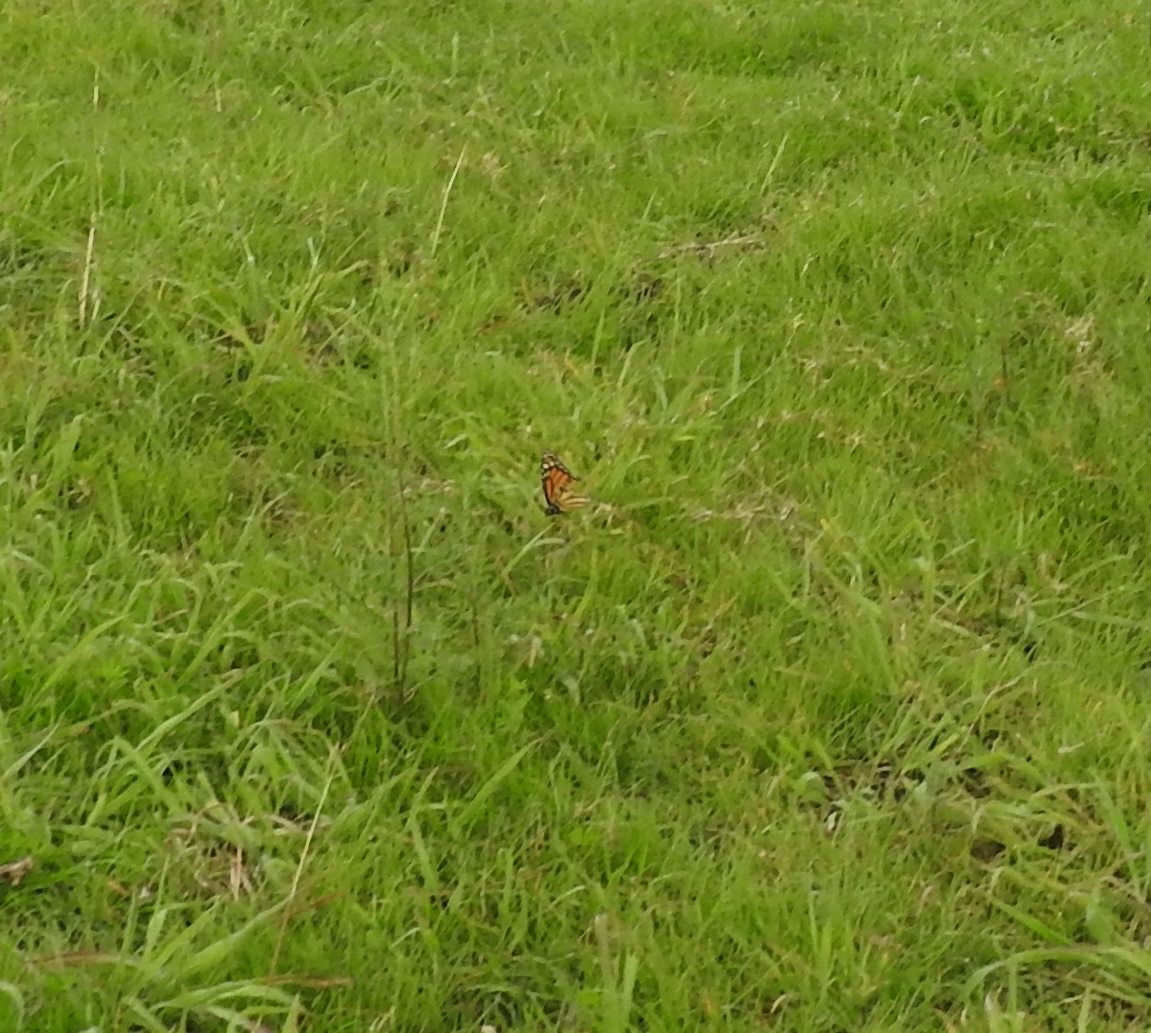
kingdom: Animalia
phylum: Arthropoda
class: Insecta
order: Lepidoptera
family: Nymphalidae
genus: Danaus
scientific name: Danaus plexippus
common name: Monarch
